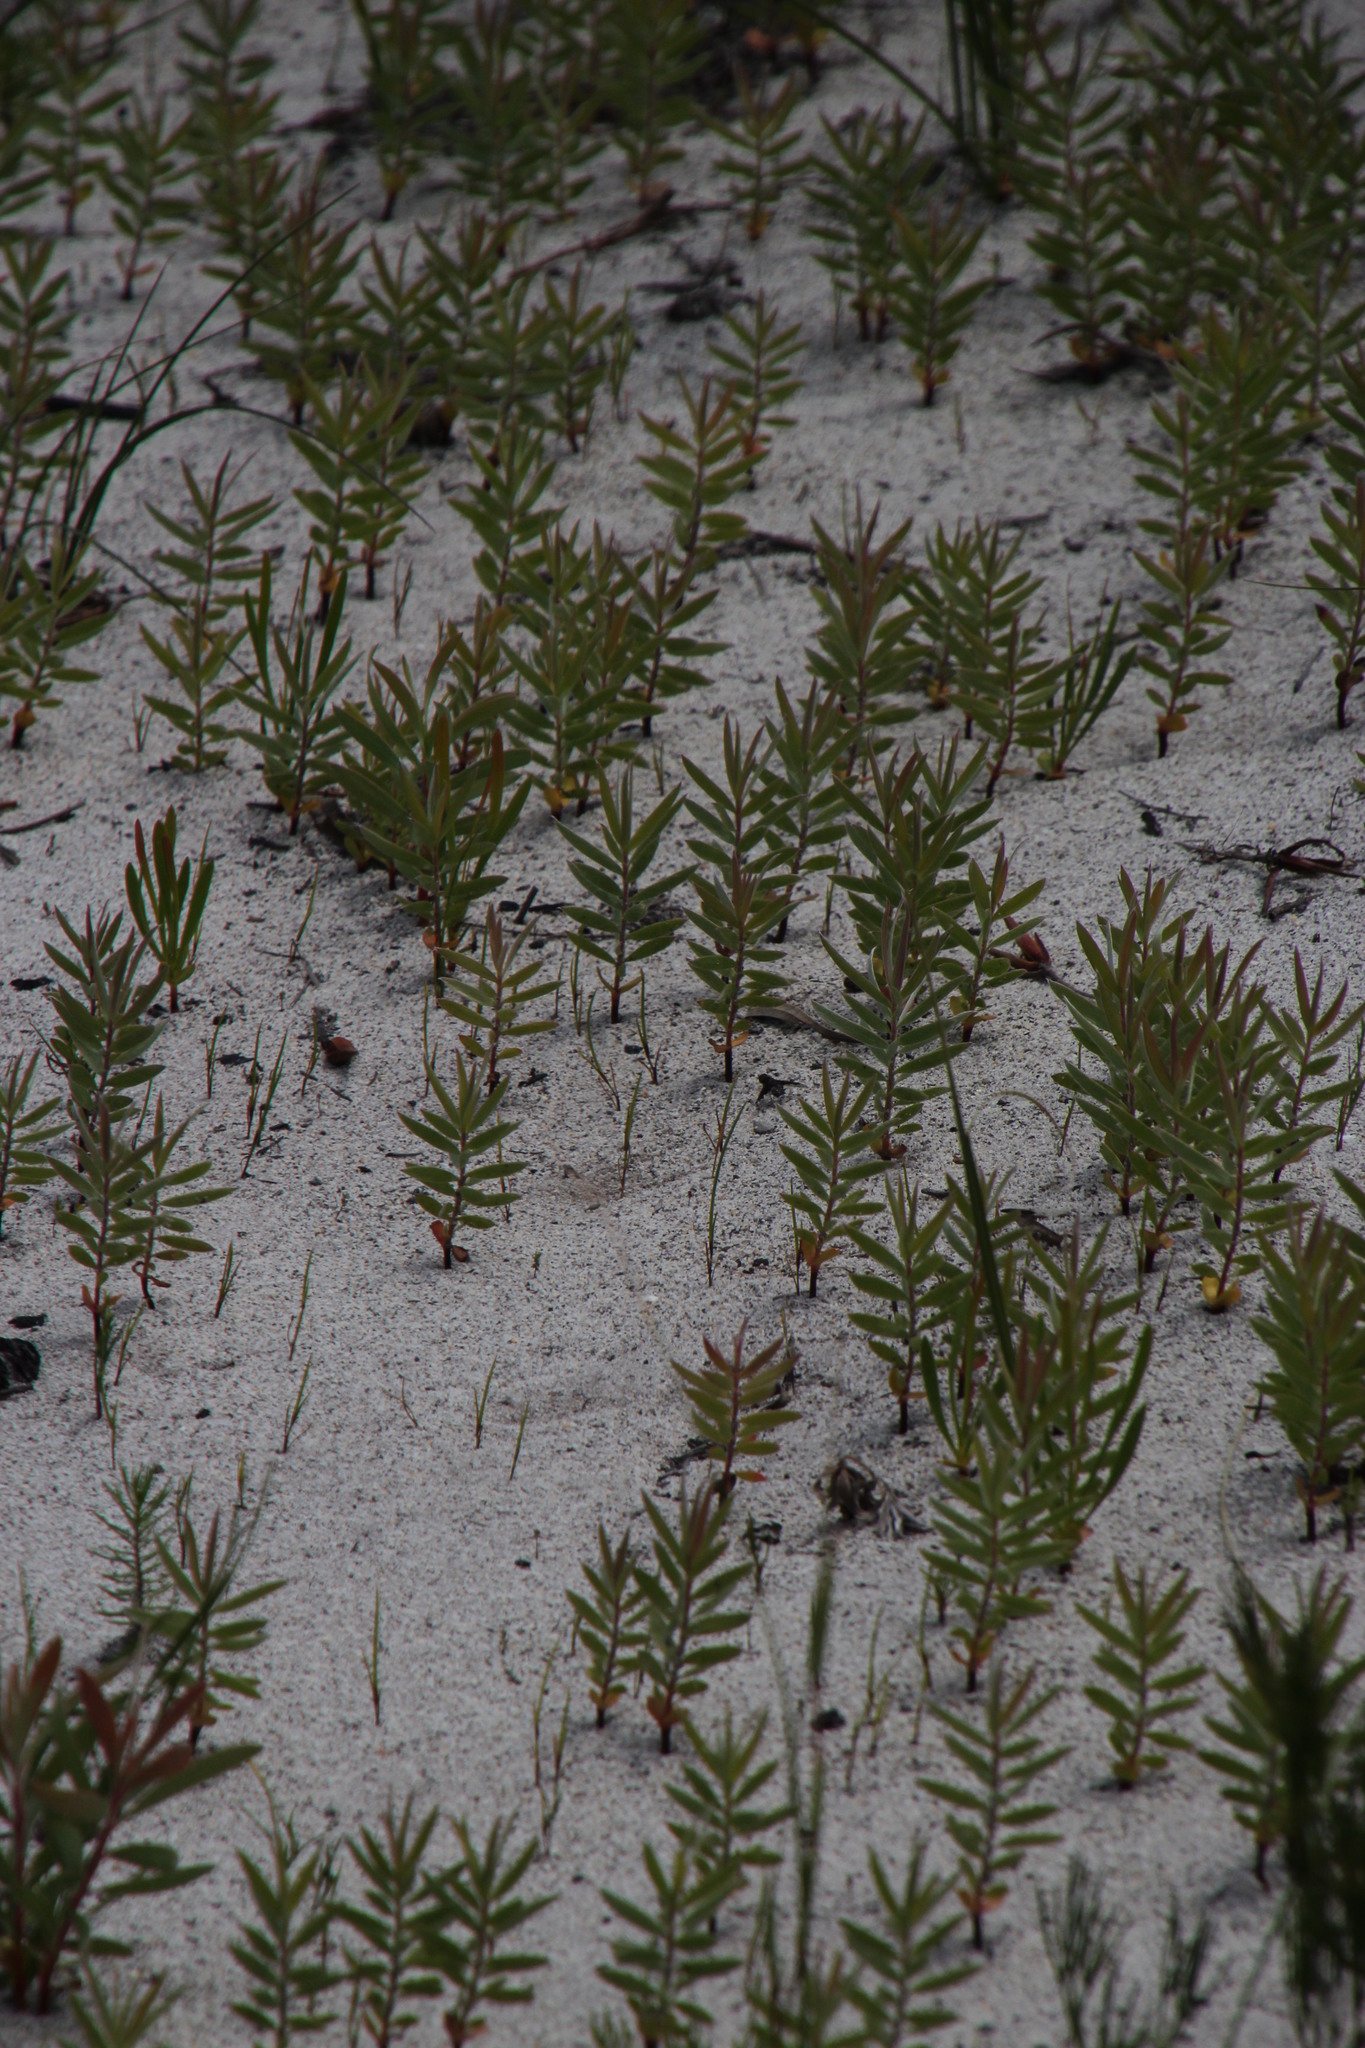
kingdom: Plantae
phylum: Tracheophyta
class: Magnoliopsida
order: Proteales
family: Proteaceae
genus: Leucadendron
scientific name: Leucadendron xanthoconus
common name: Sickle-leaf conebush
